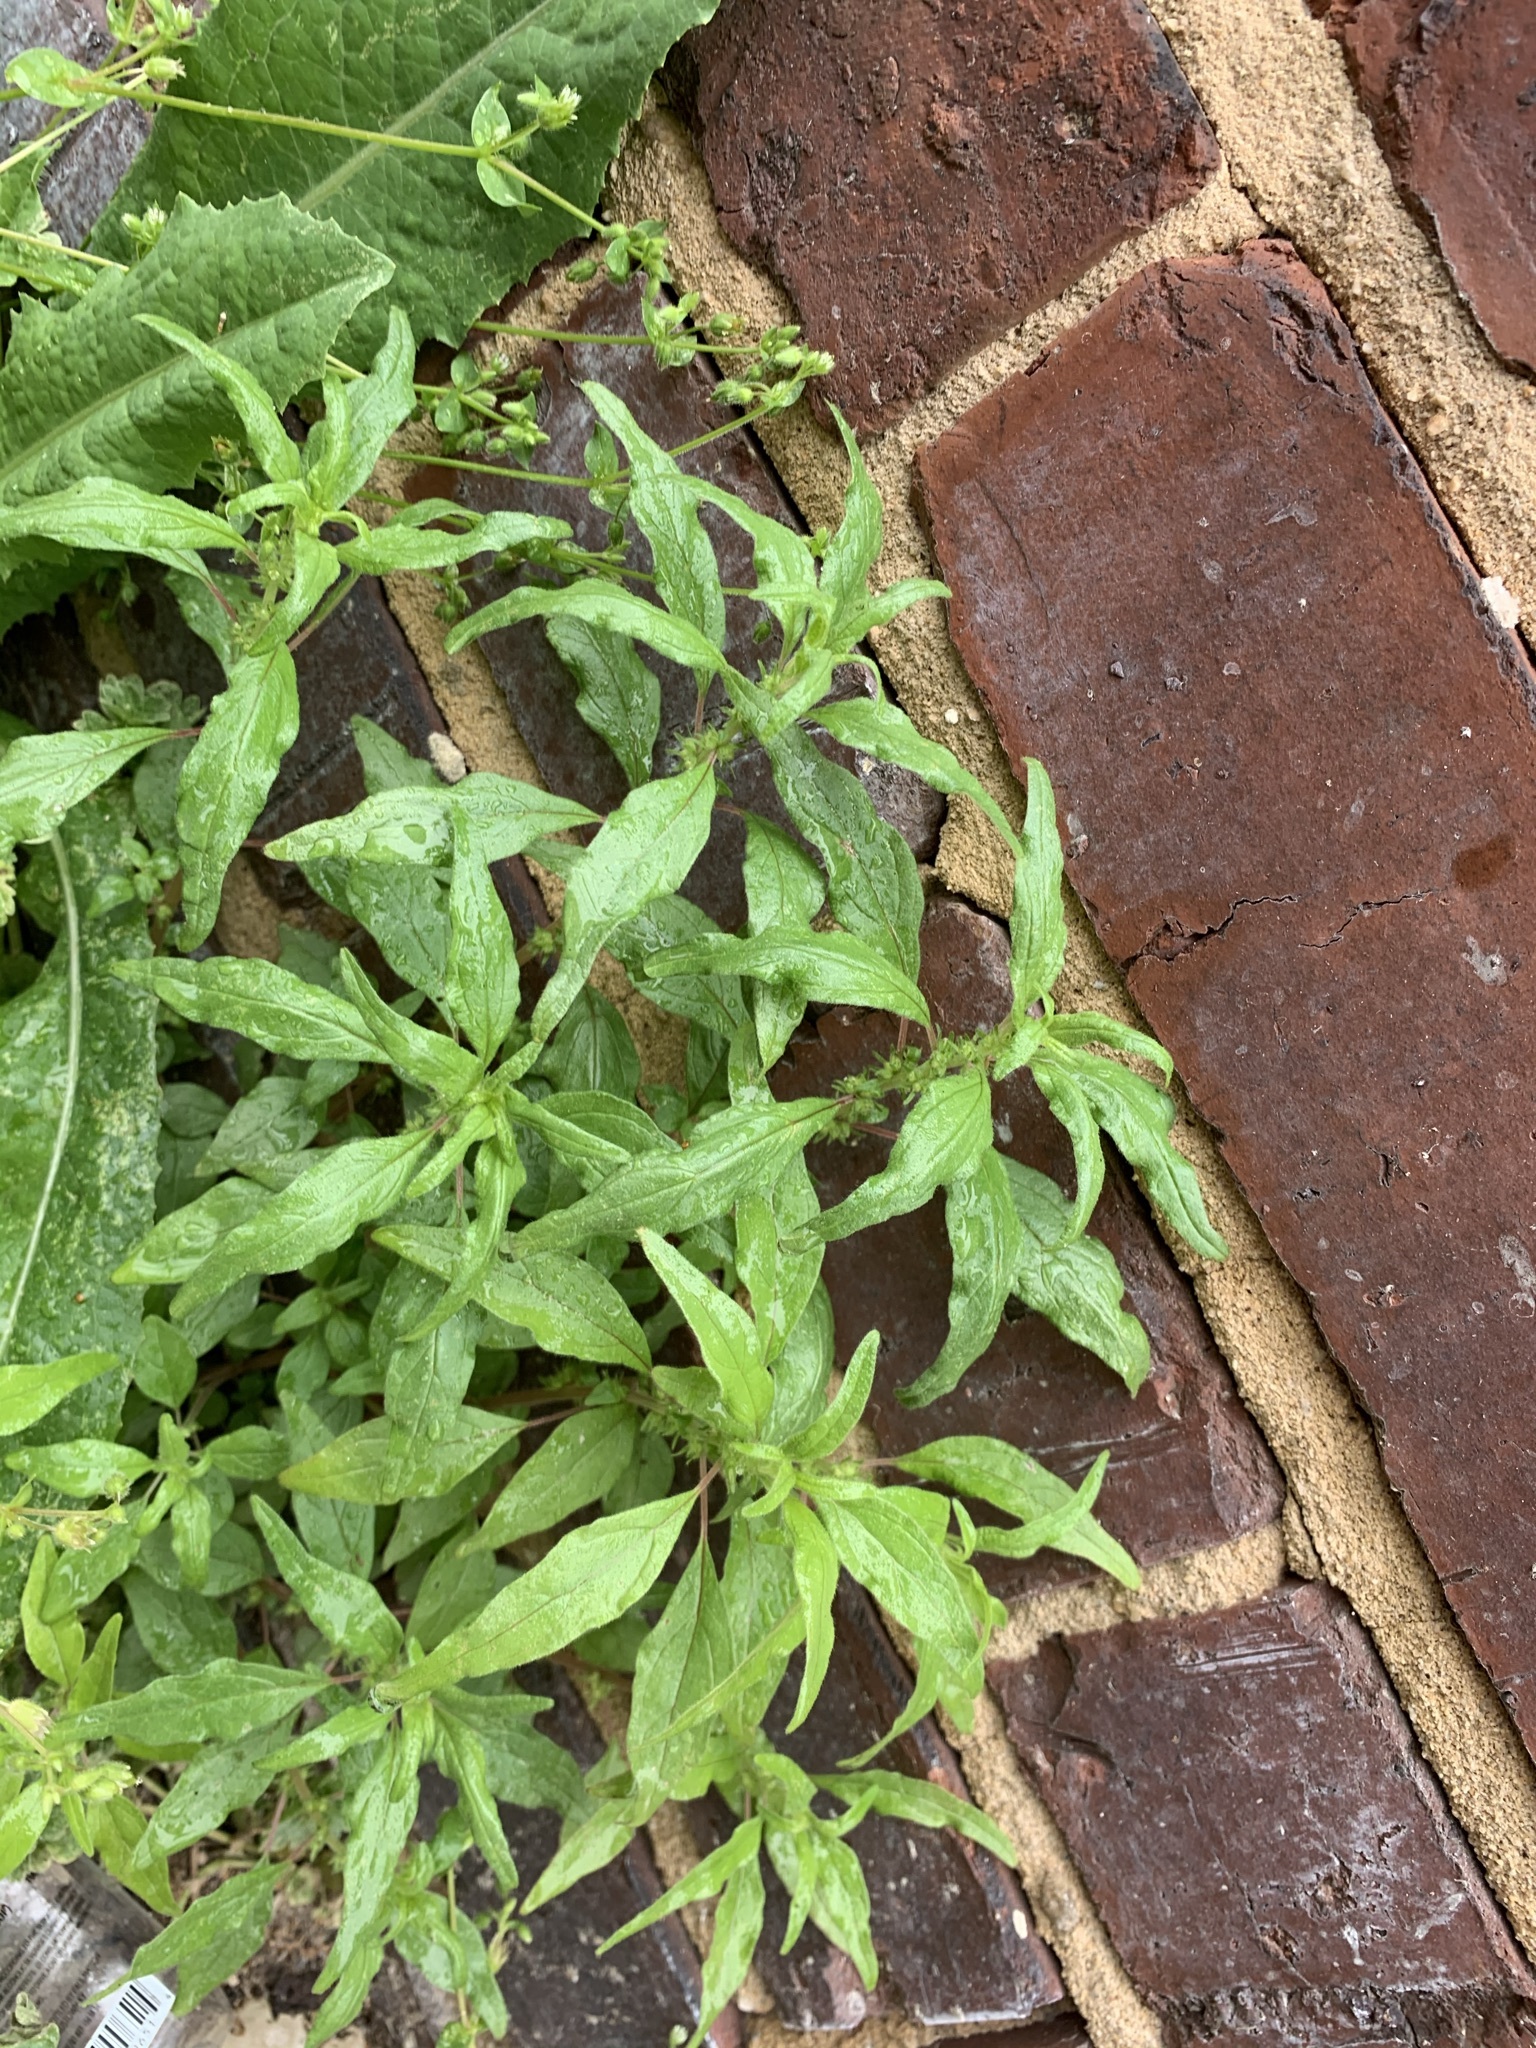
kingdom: Plantae
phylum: Tracheophyta
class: Magnoliopsida
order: Rosales
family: Urticaceae
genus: Parietaria
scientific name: Parietaria pensylvanica
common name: Pennsylvania pellitory
